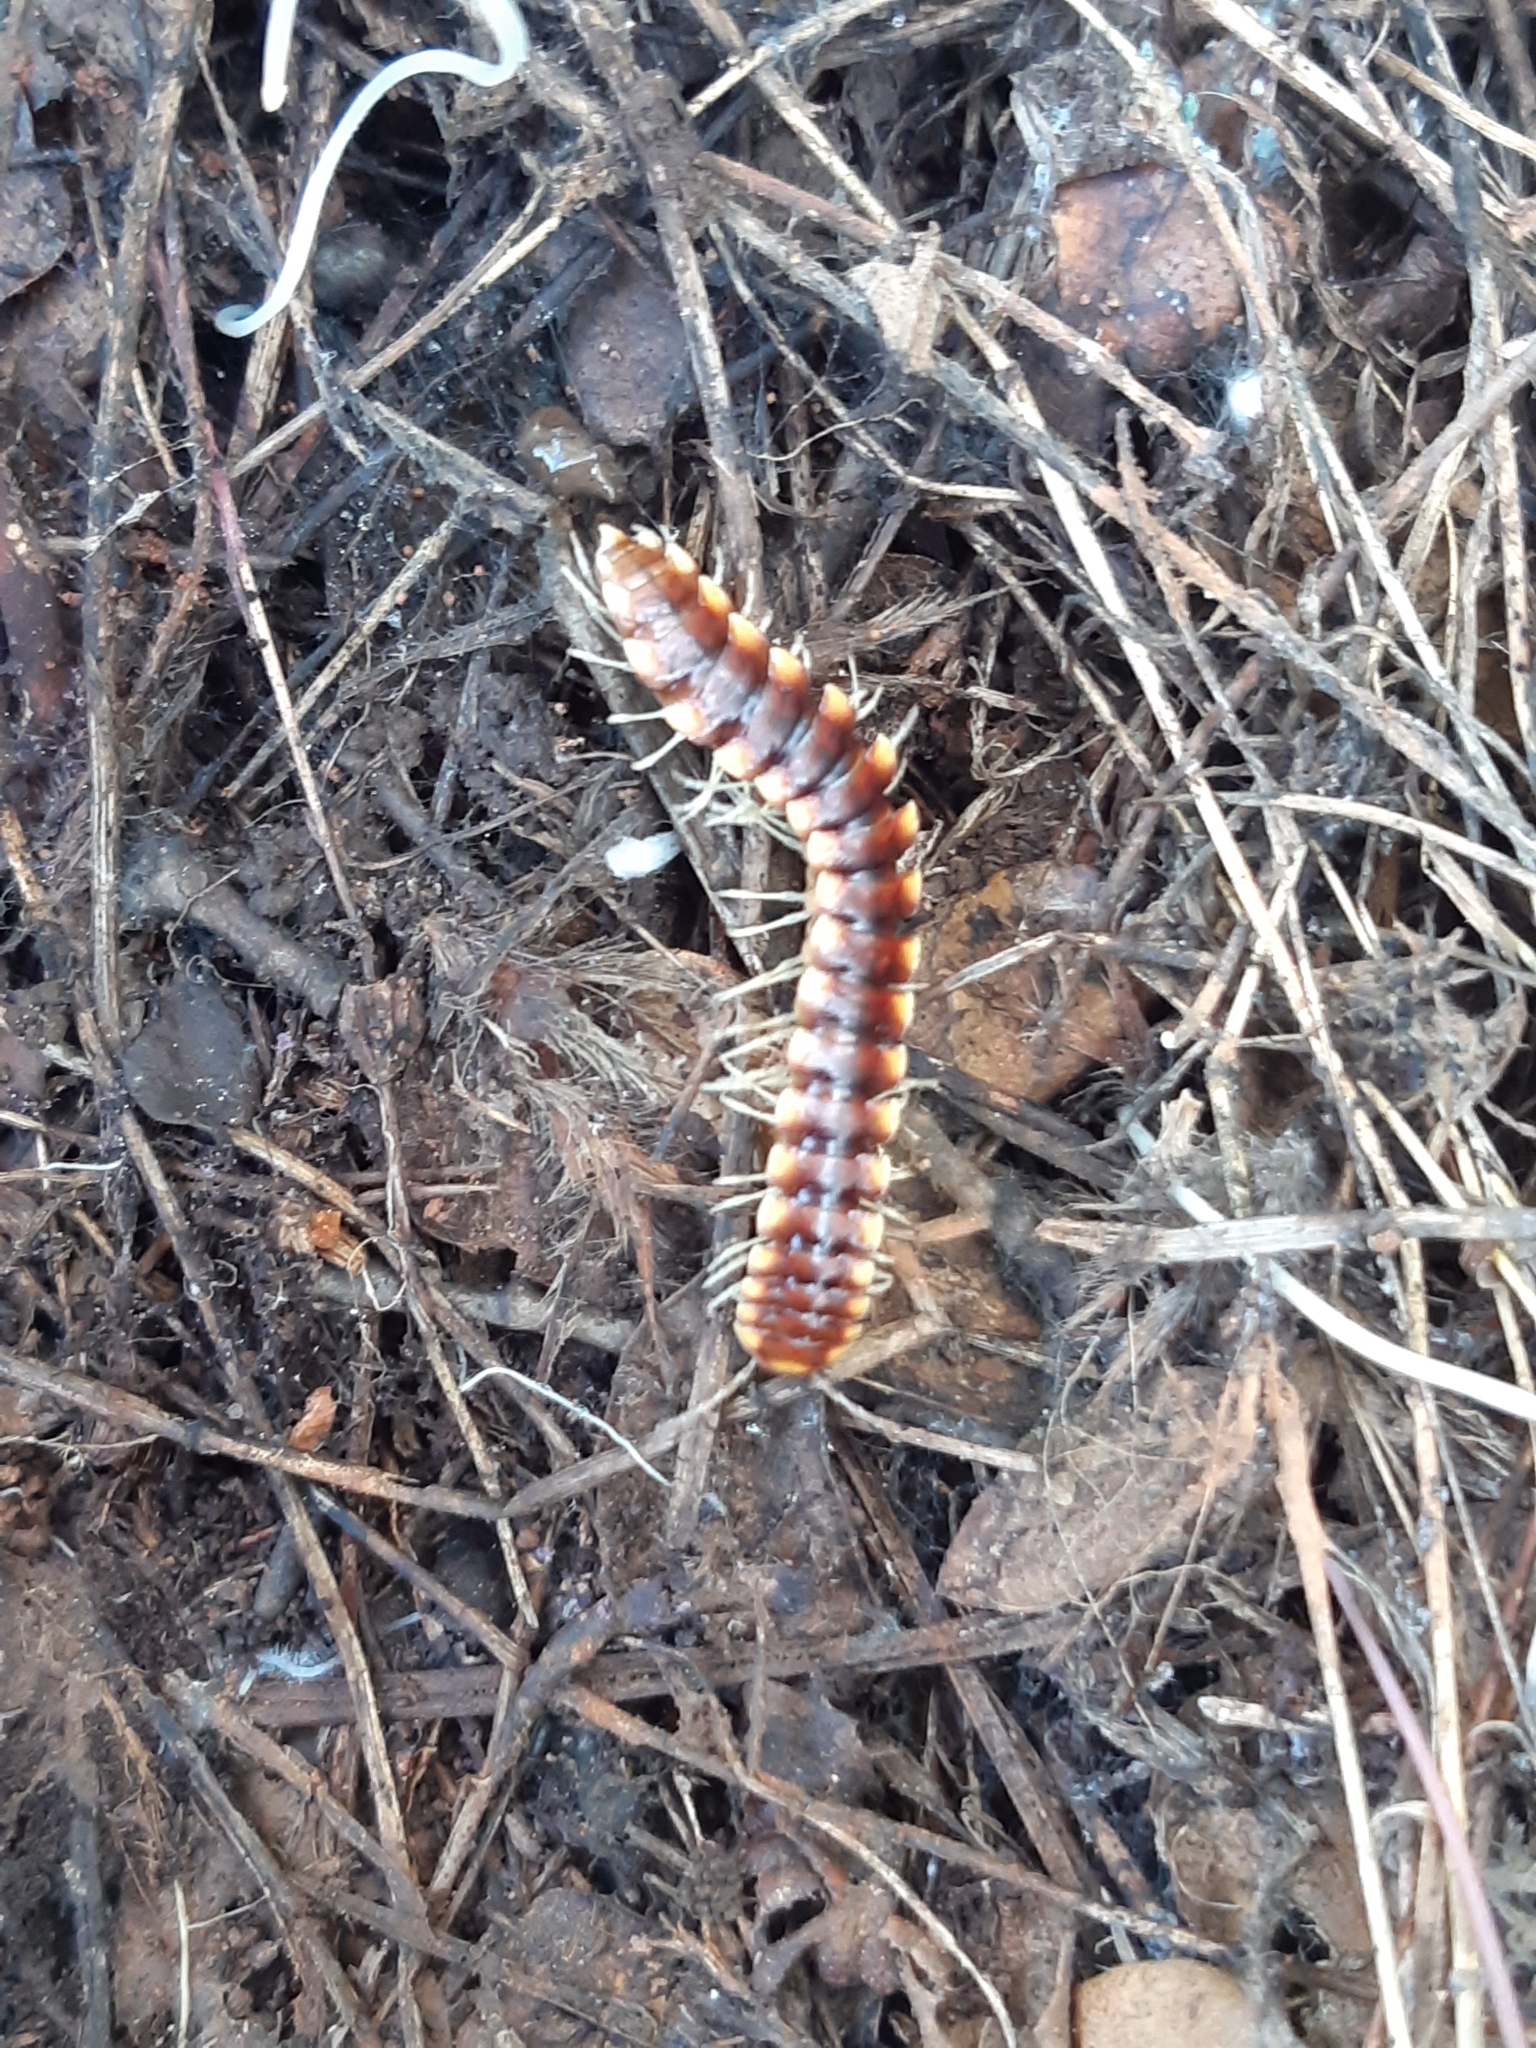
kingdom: Animalia
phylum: Arthropoda
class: Diplopoda
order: Polydesmida
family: Xystodesmidae
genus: Melaphe
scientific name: Melaphe vestita
